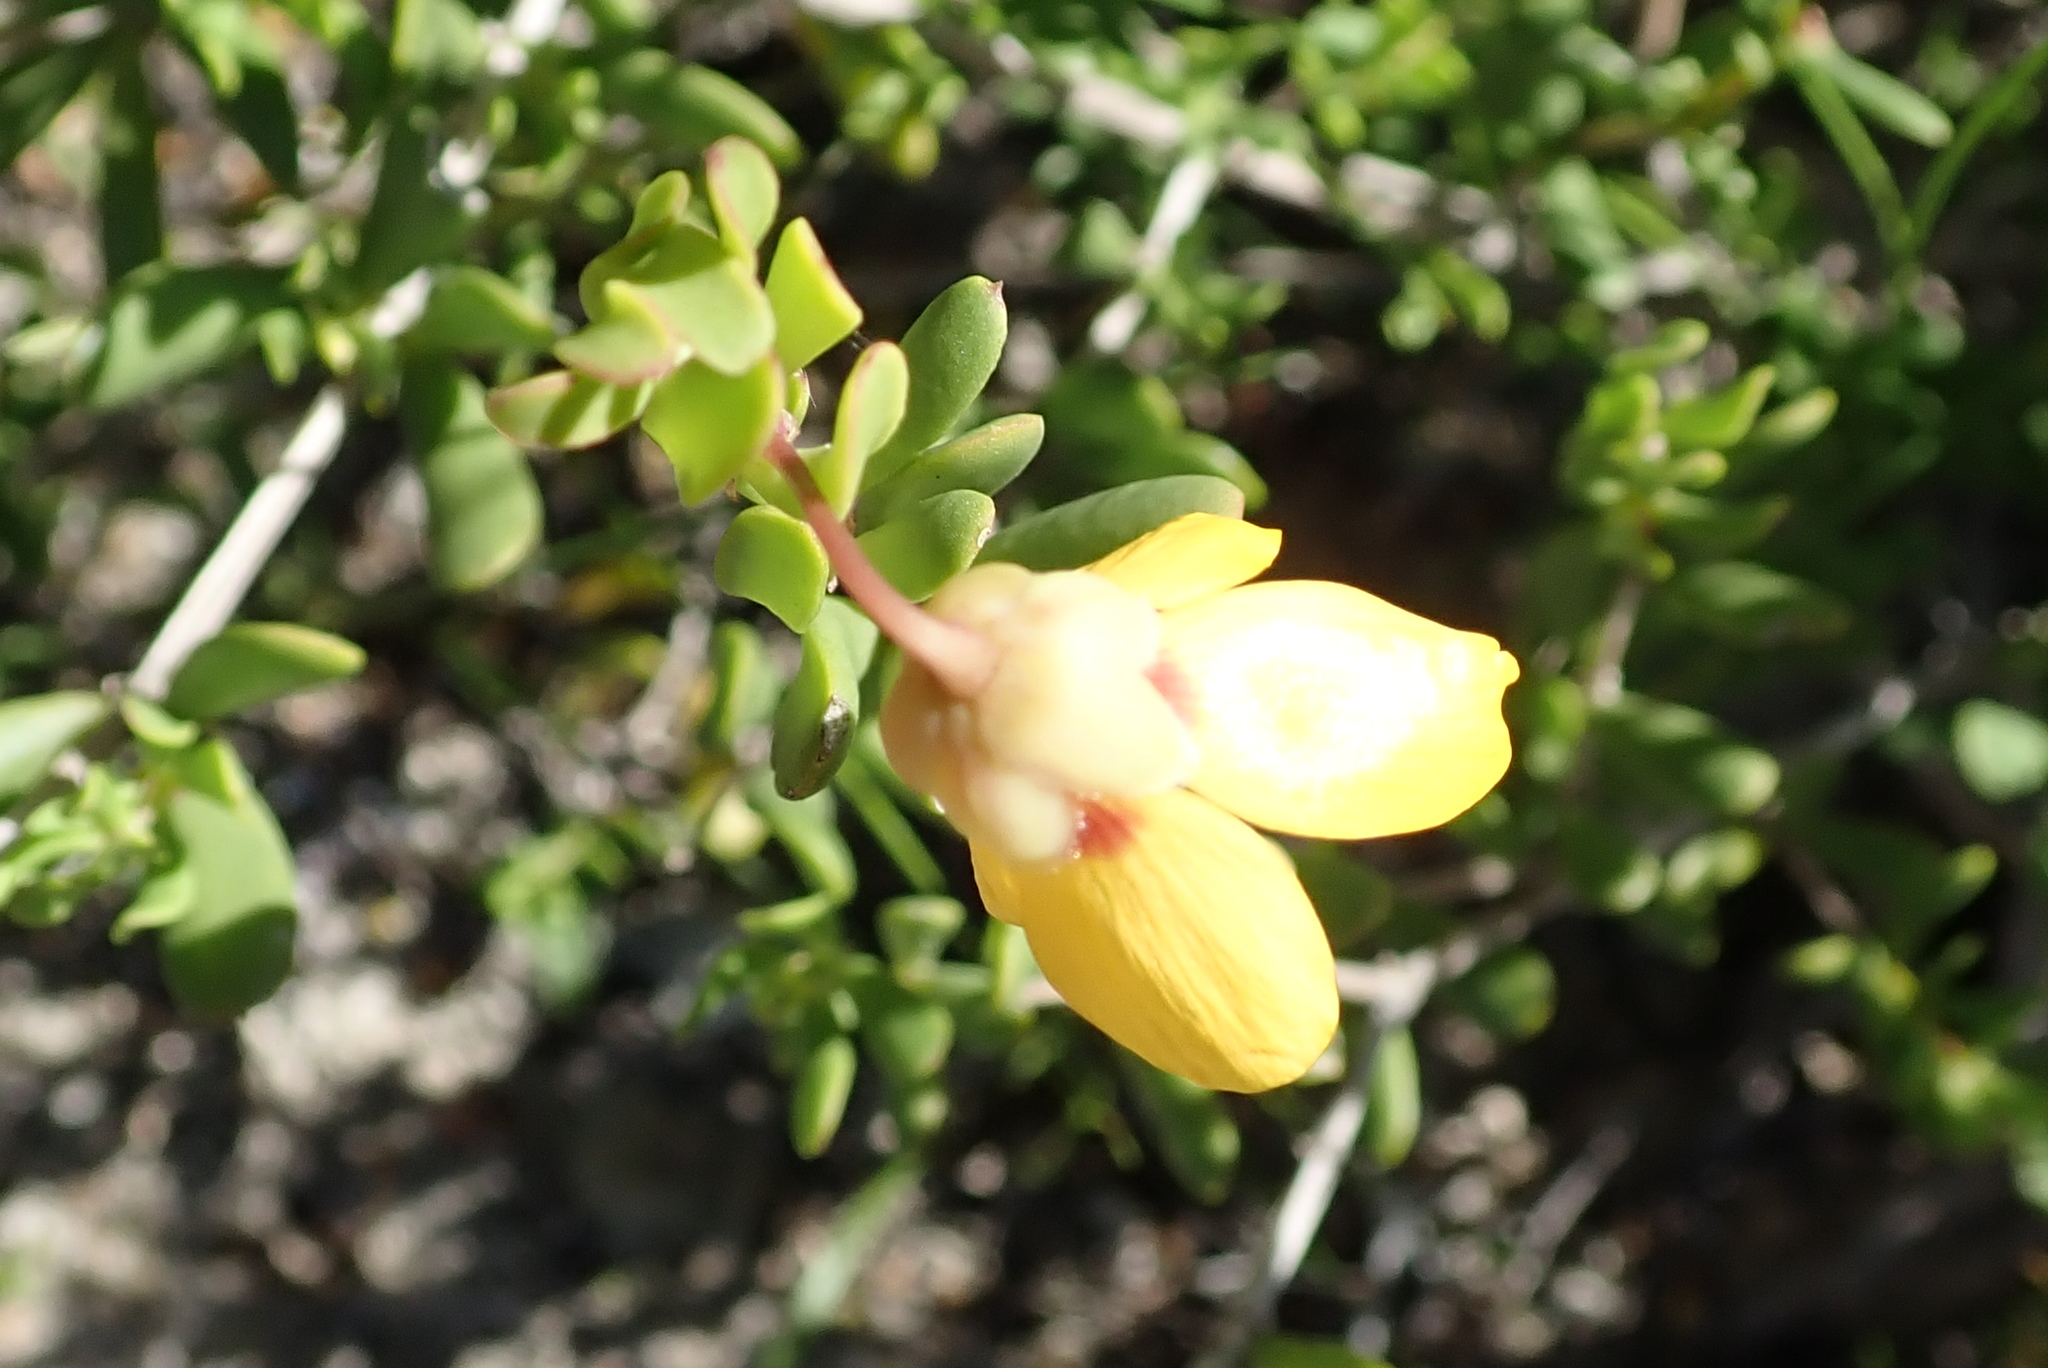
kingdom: Plantae
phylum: Tracheophyta
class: Magnoliopsida
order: Zygophyllales
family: Zygophyllaceae
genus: Roepera
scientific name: Roepera flexuosa
